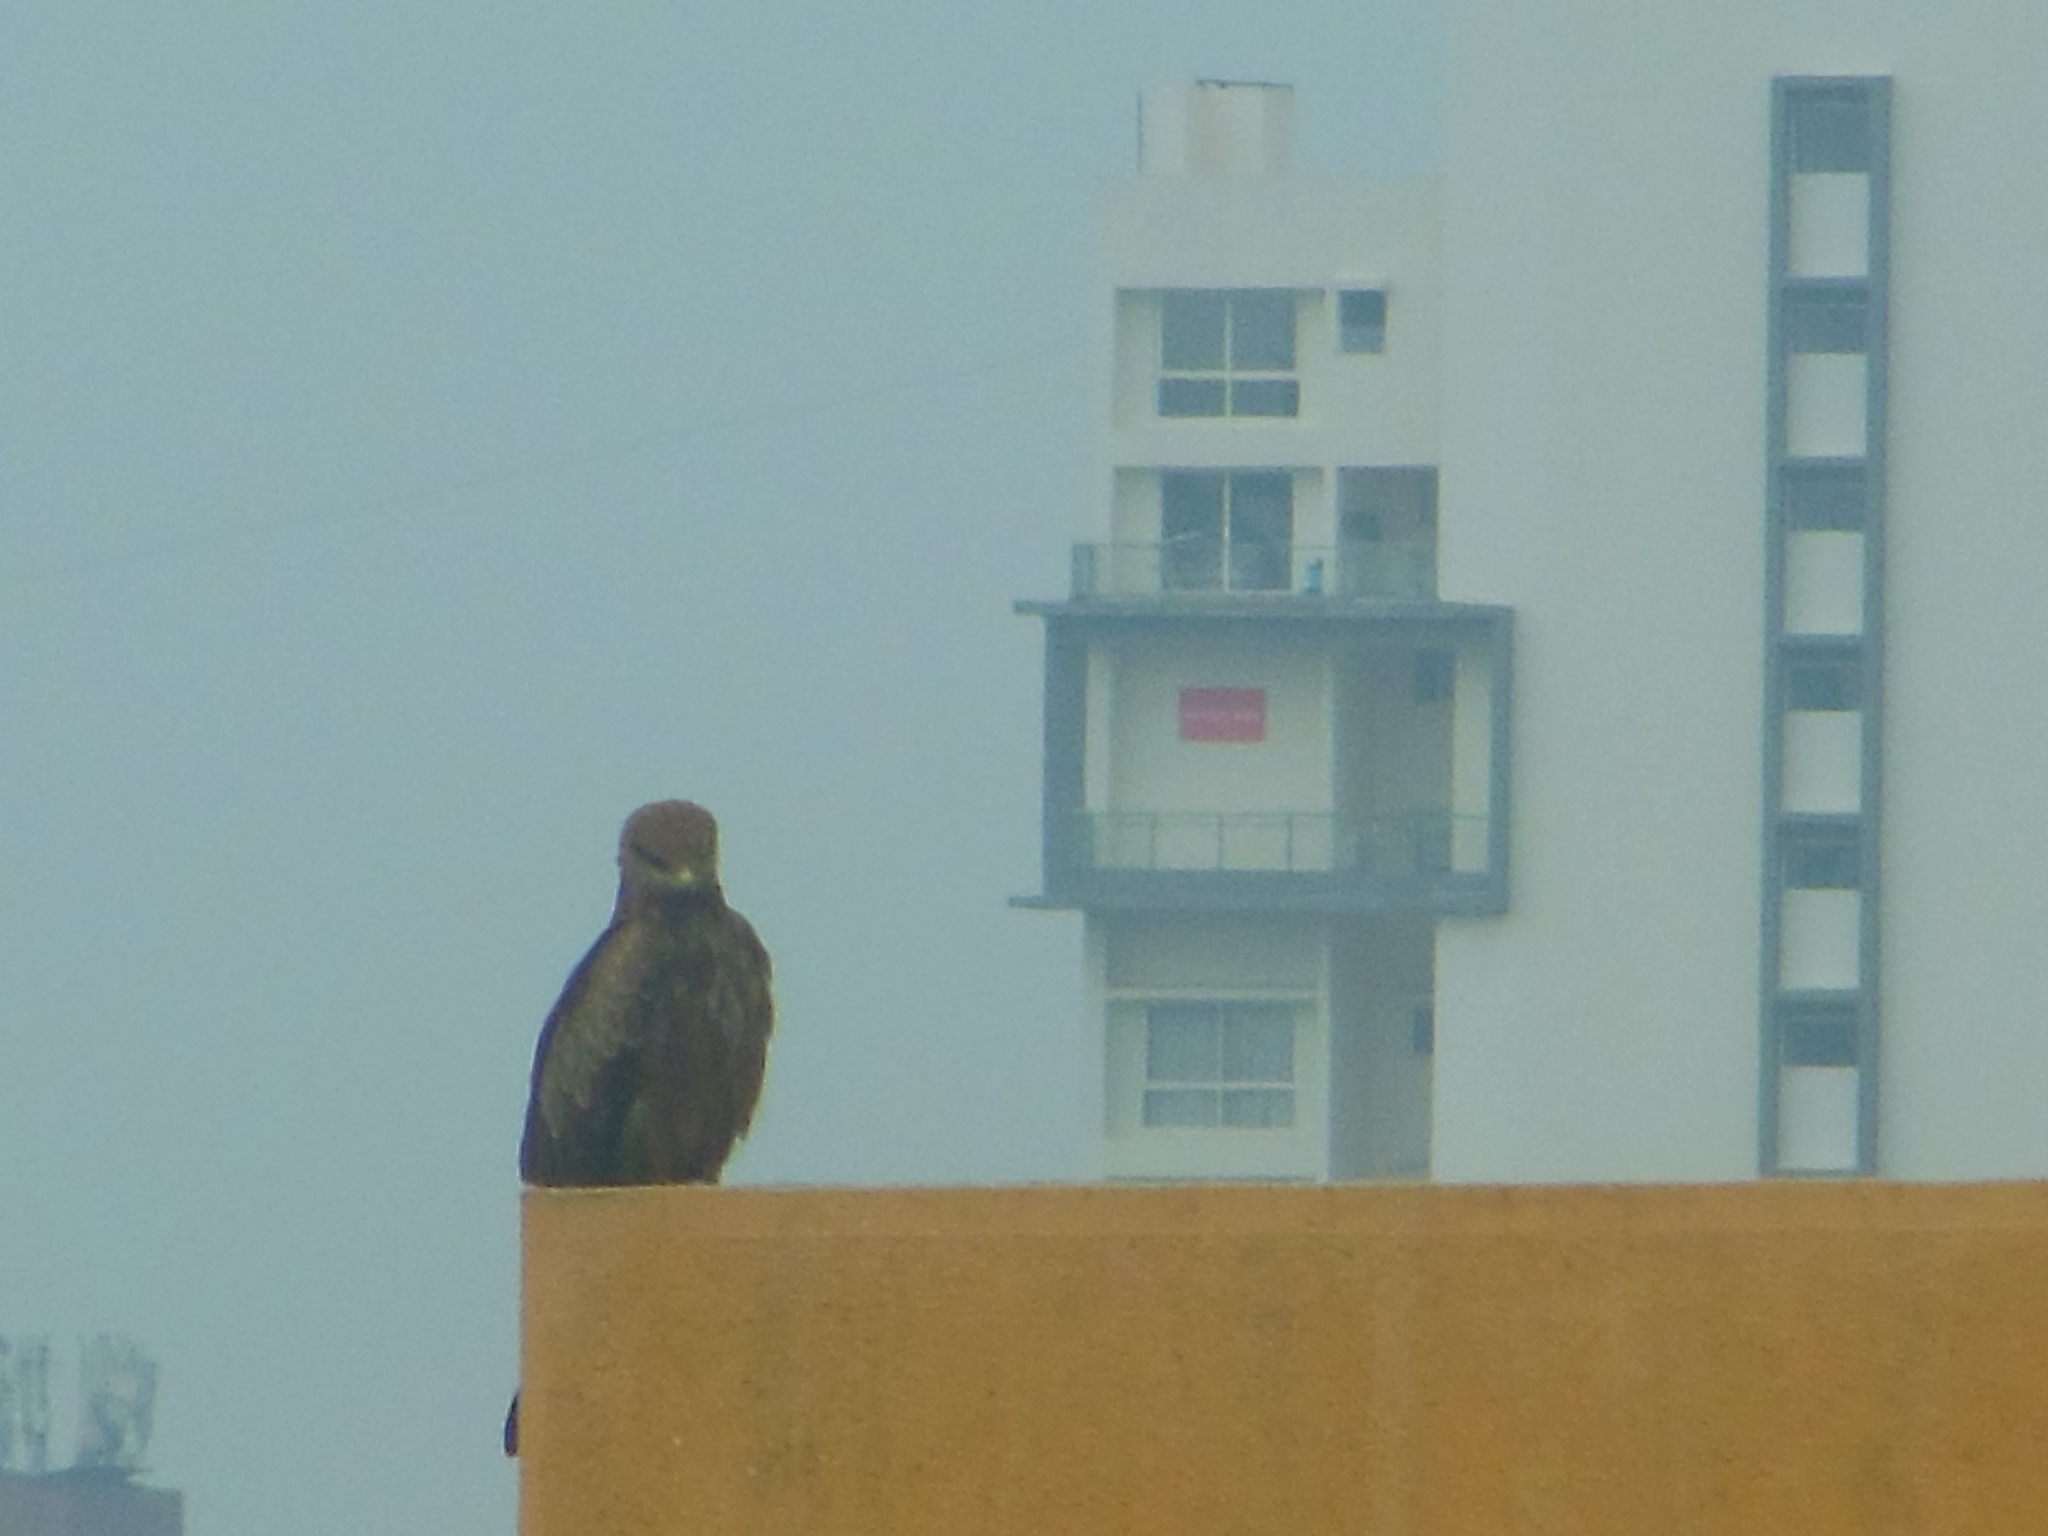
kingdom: Animalia
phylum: Chordata
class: Aves
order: Accipitriformes
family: Accipitridae
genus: Milvus
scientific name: Milvus migrans
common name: Black kite
